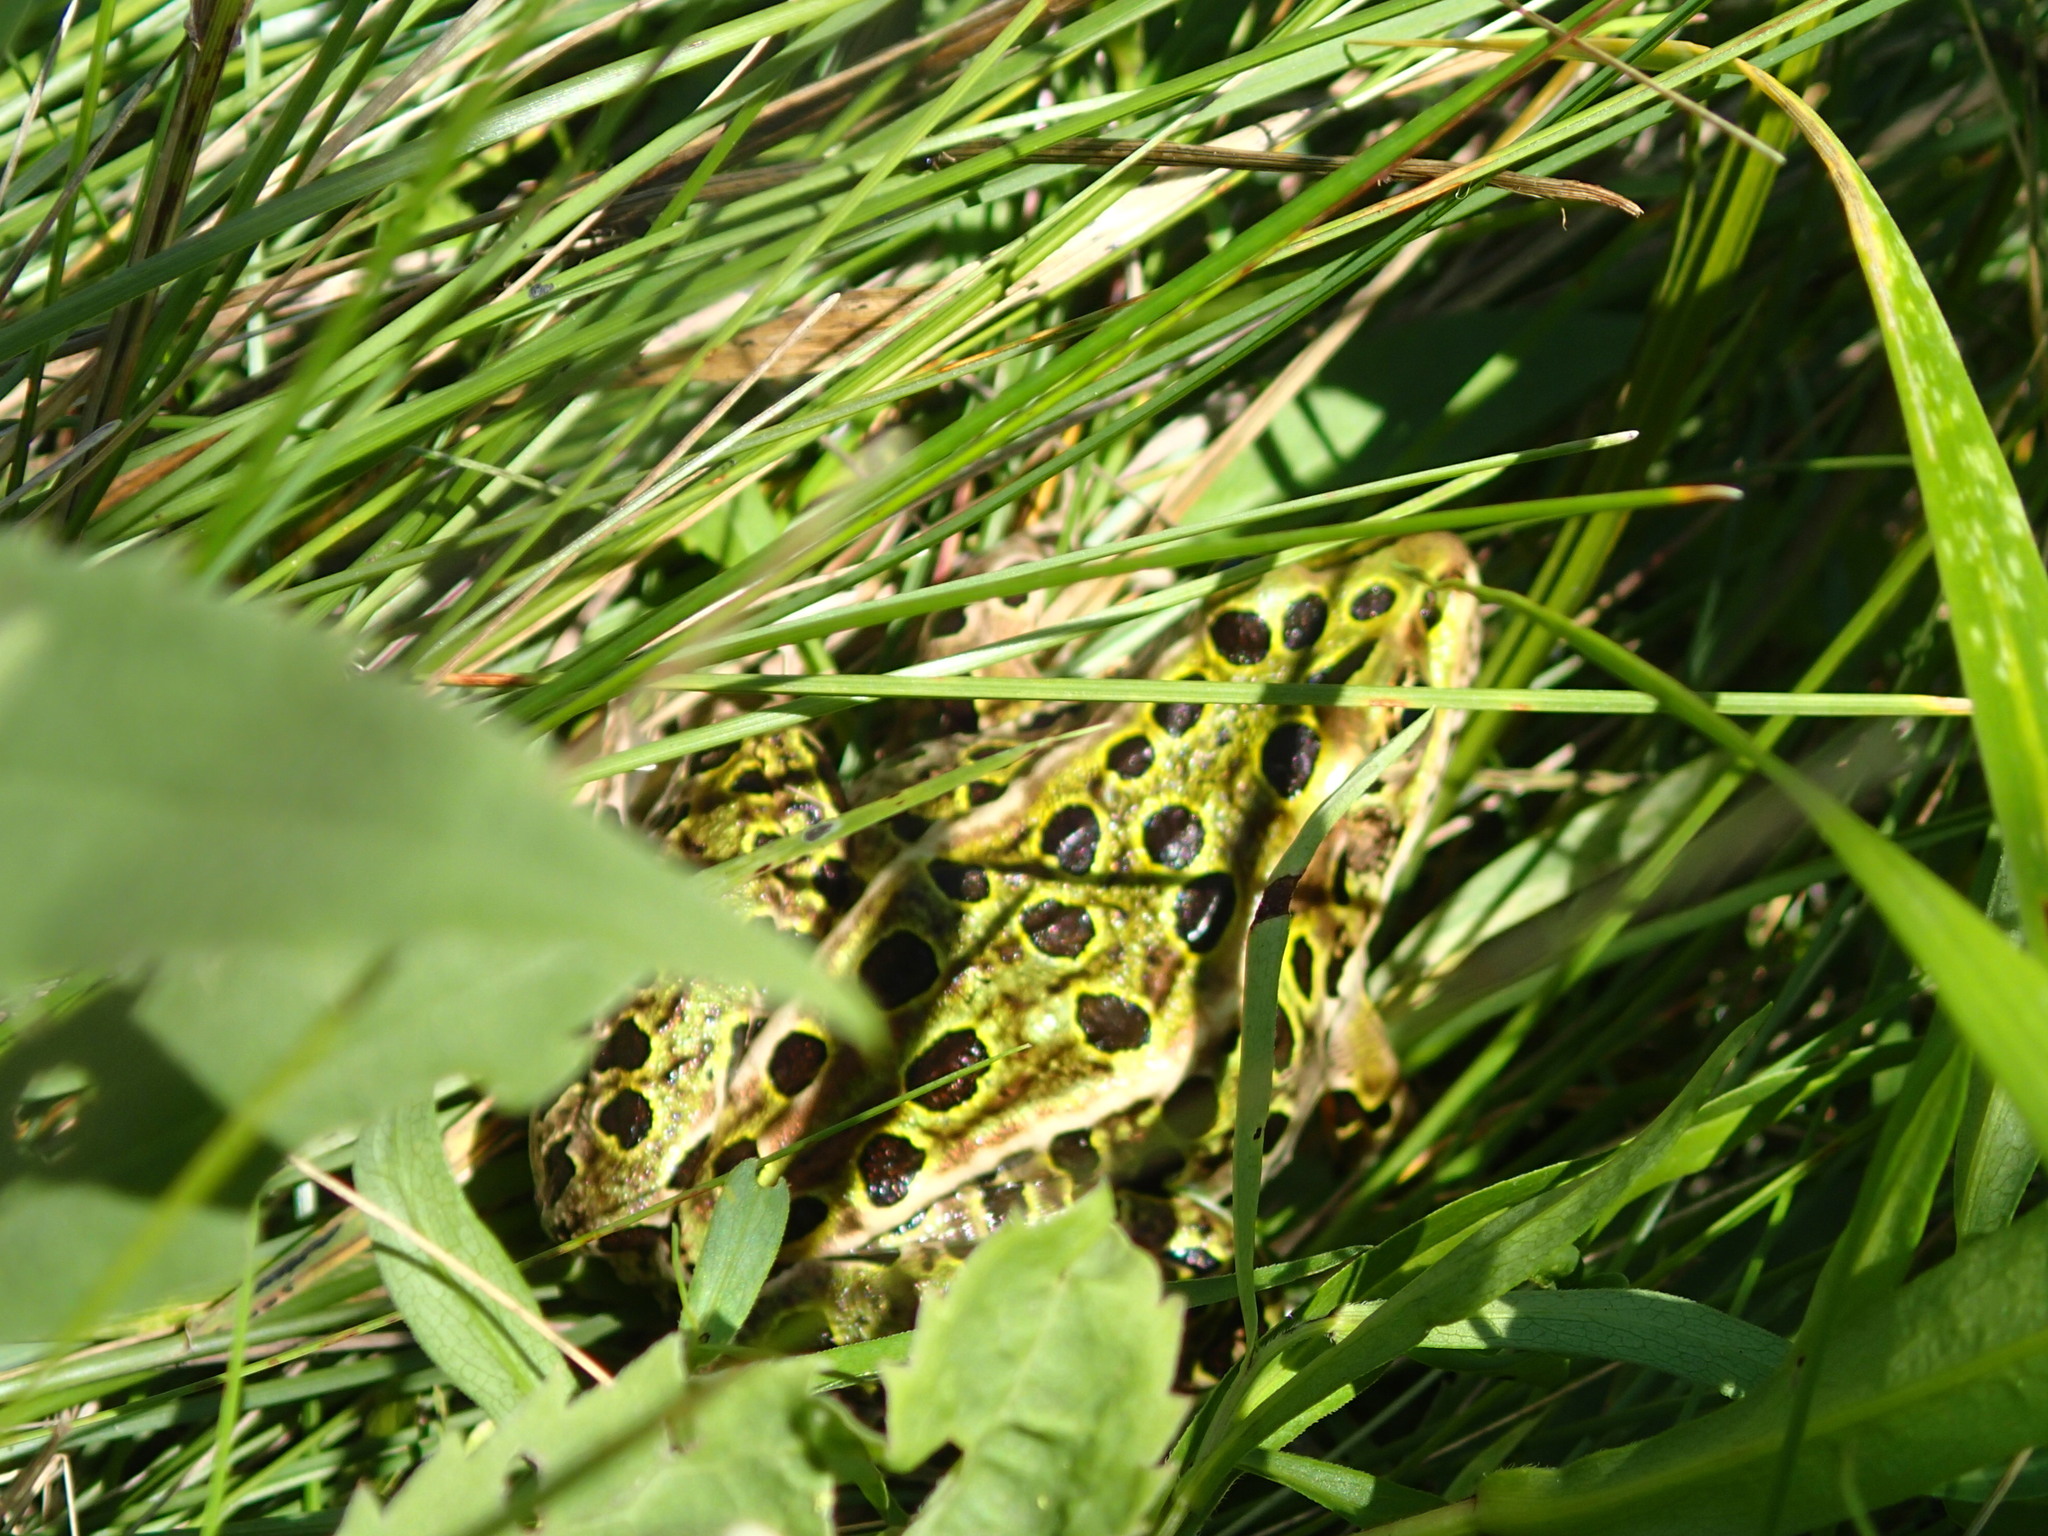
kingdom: Animalia
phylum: Chordata
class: Amphibia
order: Anura
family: Ranidae
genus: Lithobates
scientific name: Lithobates pipiens
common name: Northern leopard frog
